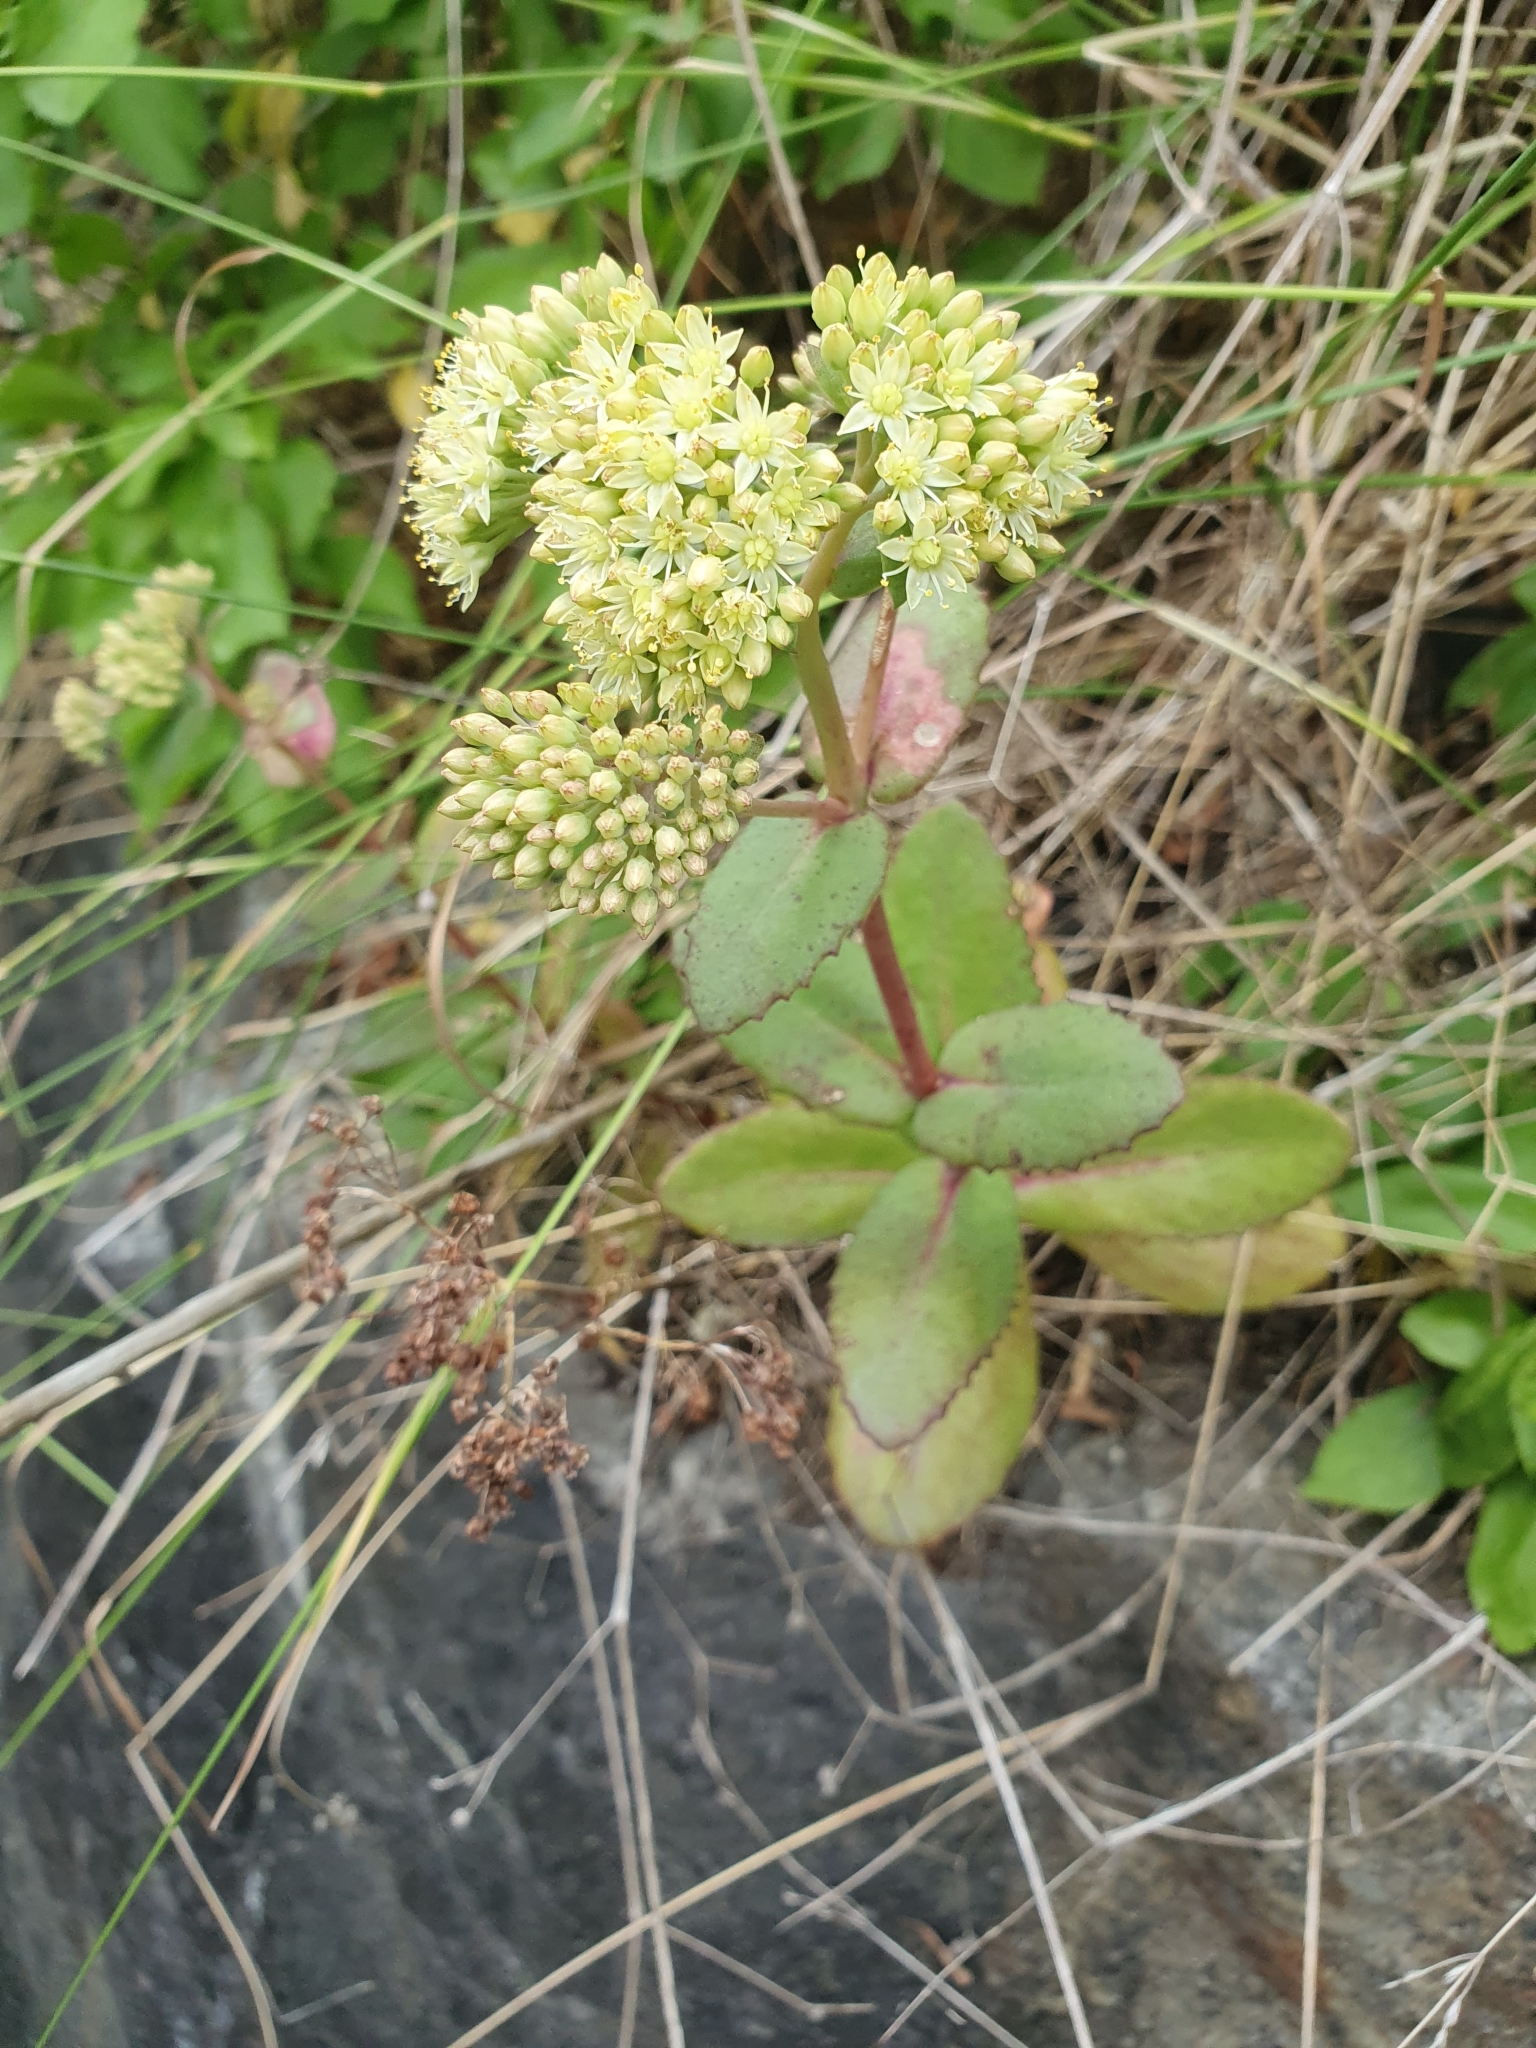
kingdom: Plantae
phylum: Tracheophyta
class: Magnoliopsida
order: Saxifragales
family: Crassulaceae
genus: Hylotelephium
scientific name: Hylotelephium maximum
